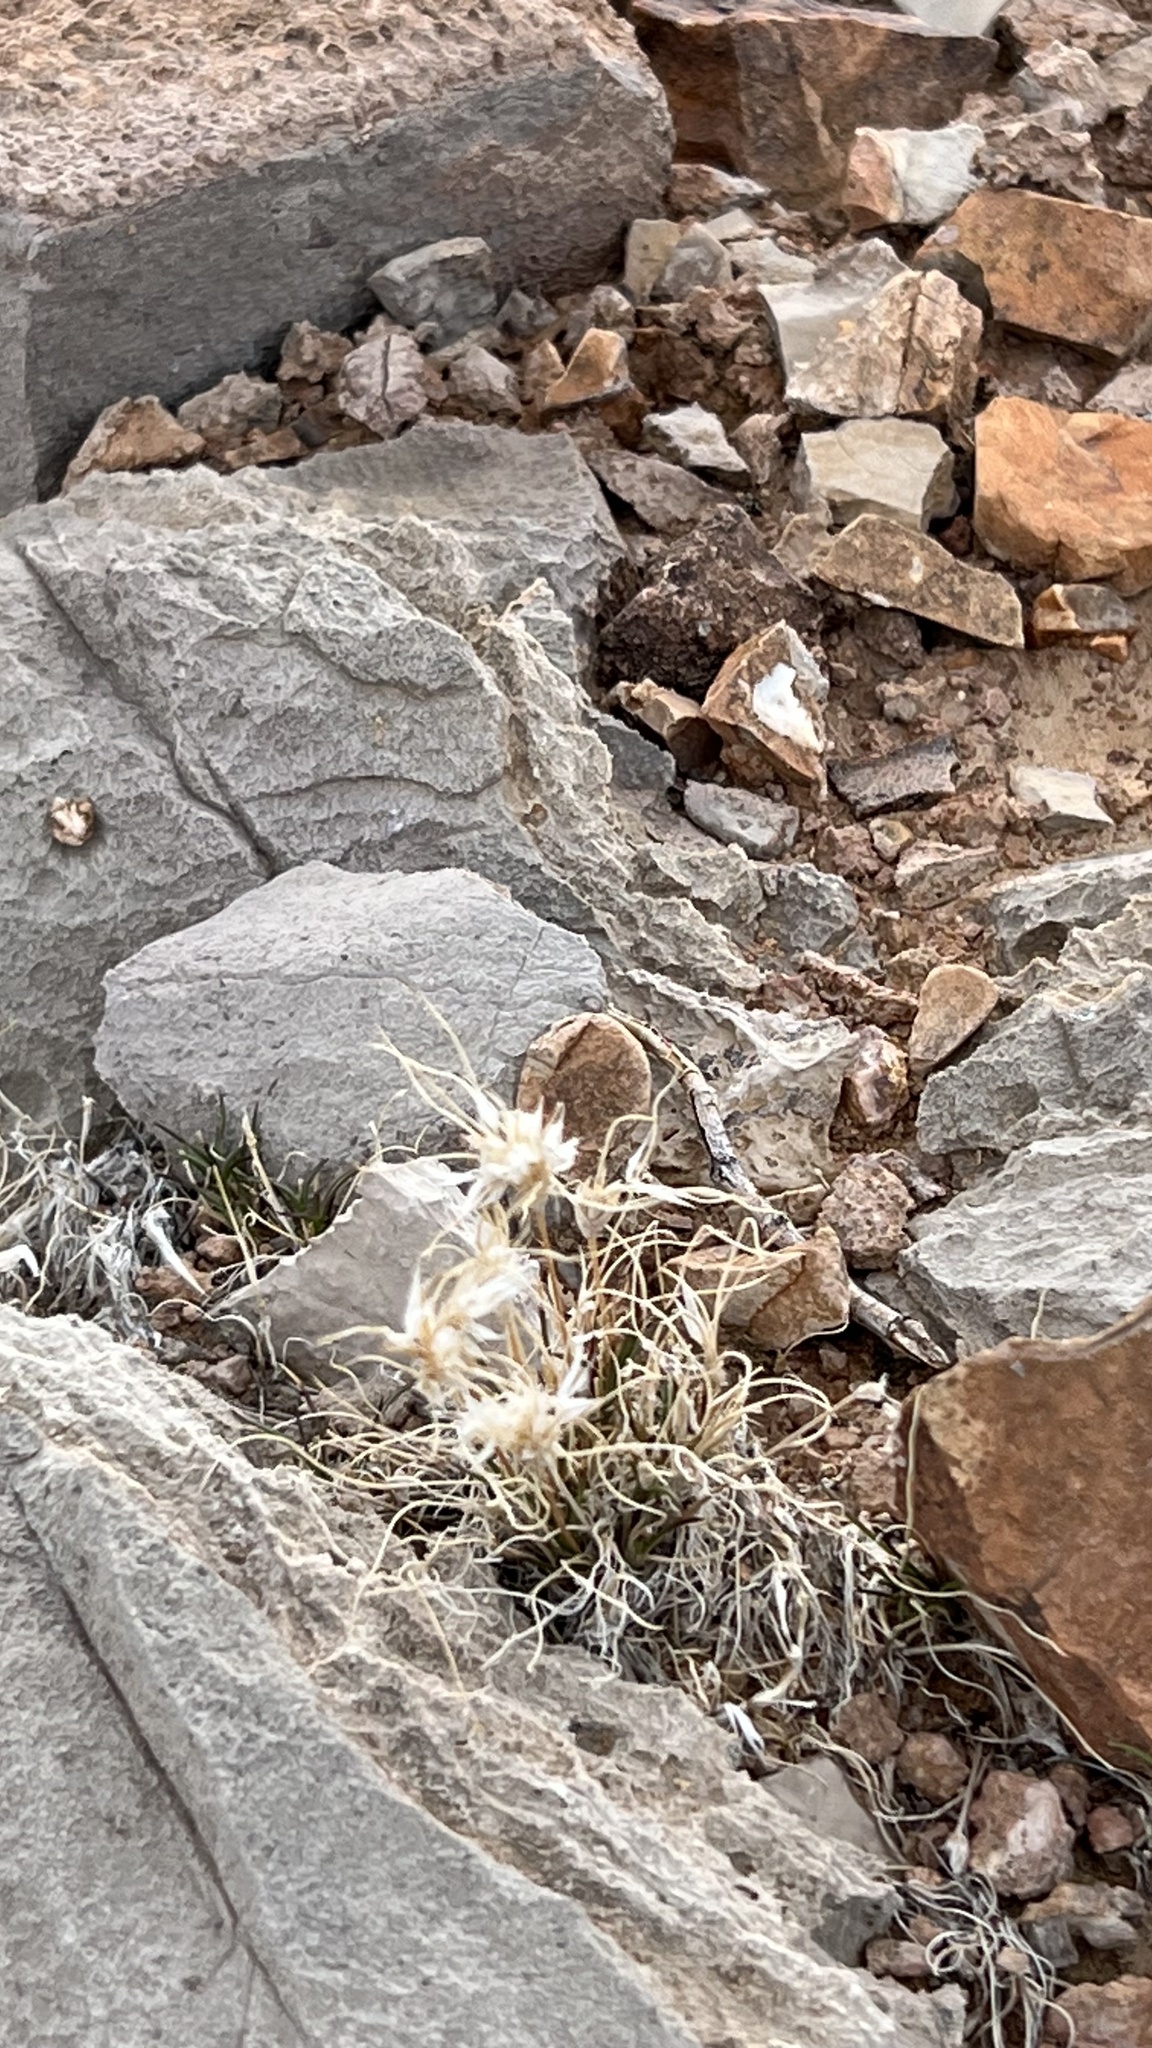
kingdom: Plantae
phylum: Tracheophyta
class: Liliopsida
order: Poales
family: Poaceae
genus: Dasyochloa
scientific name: Dasyochloa pulchella
